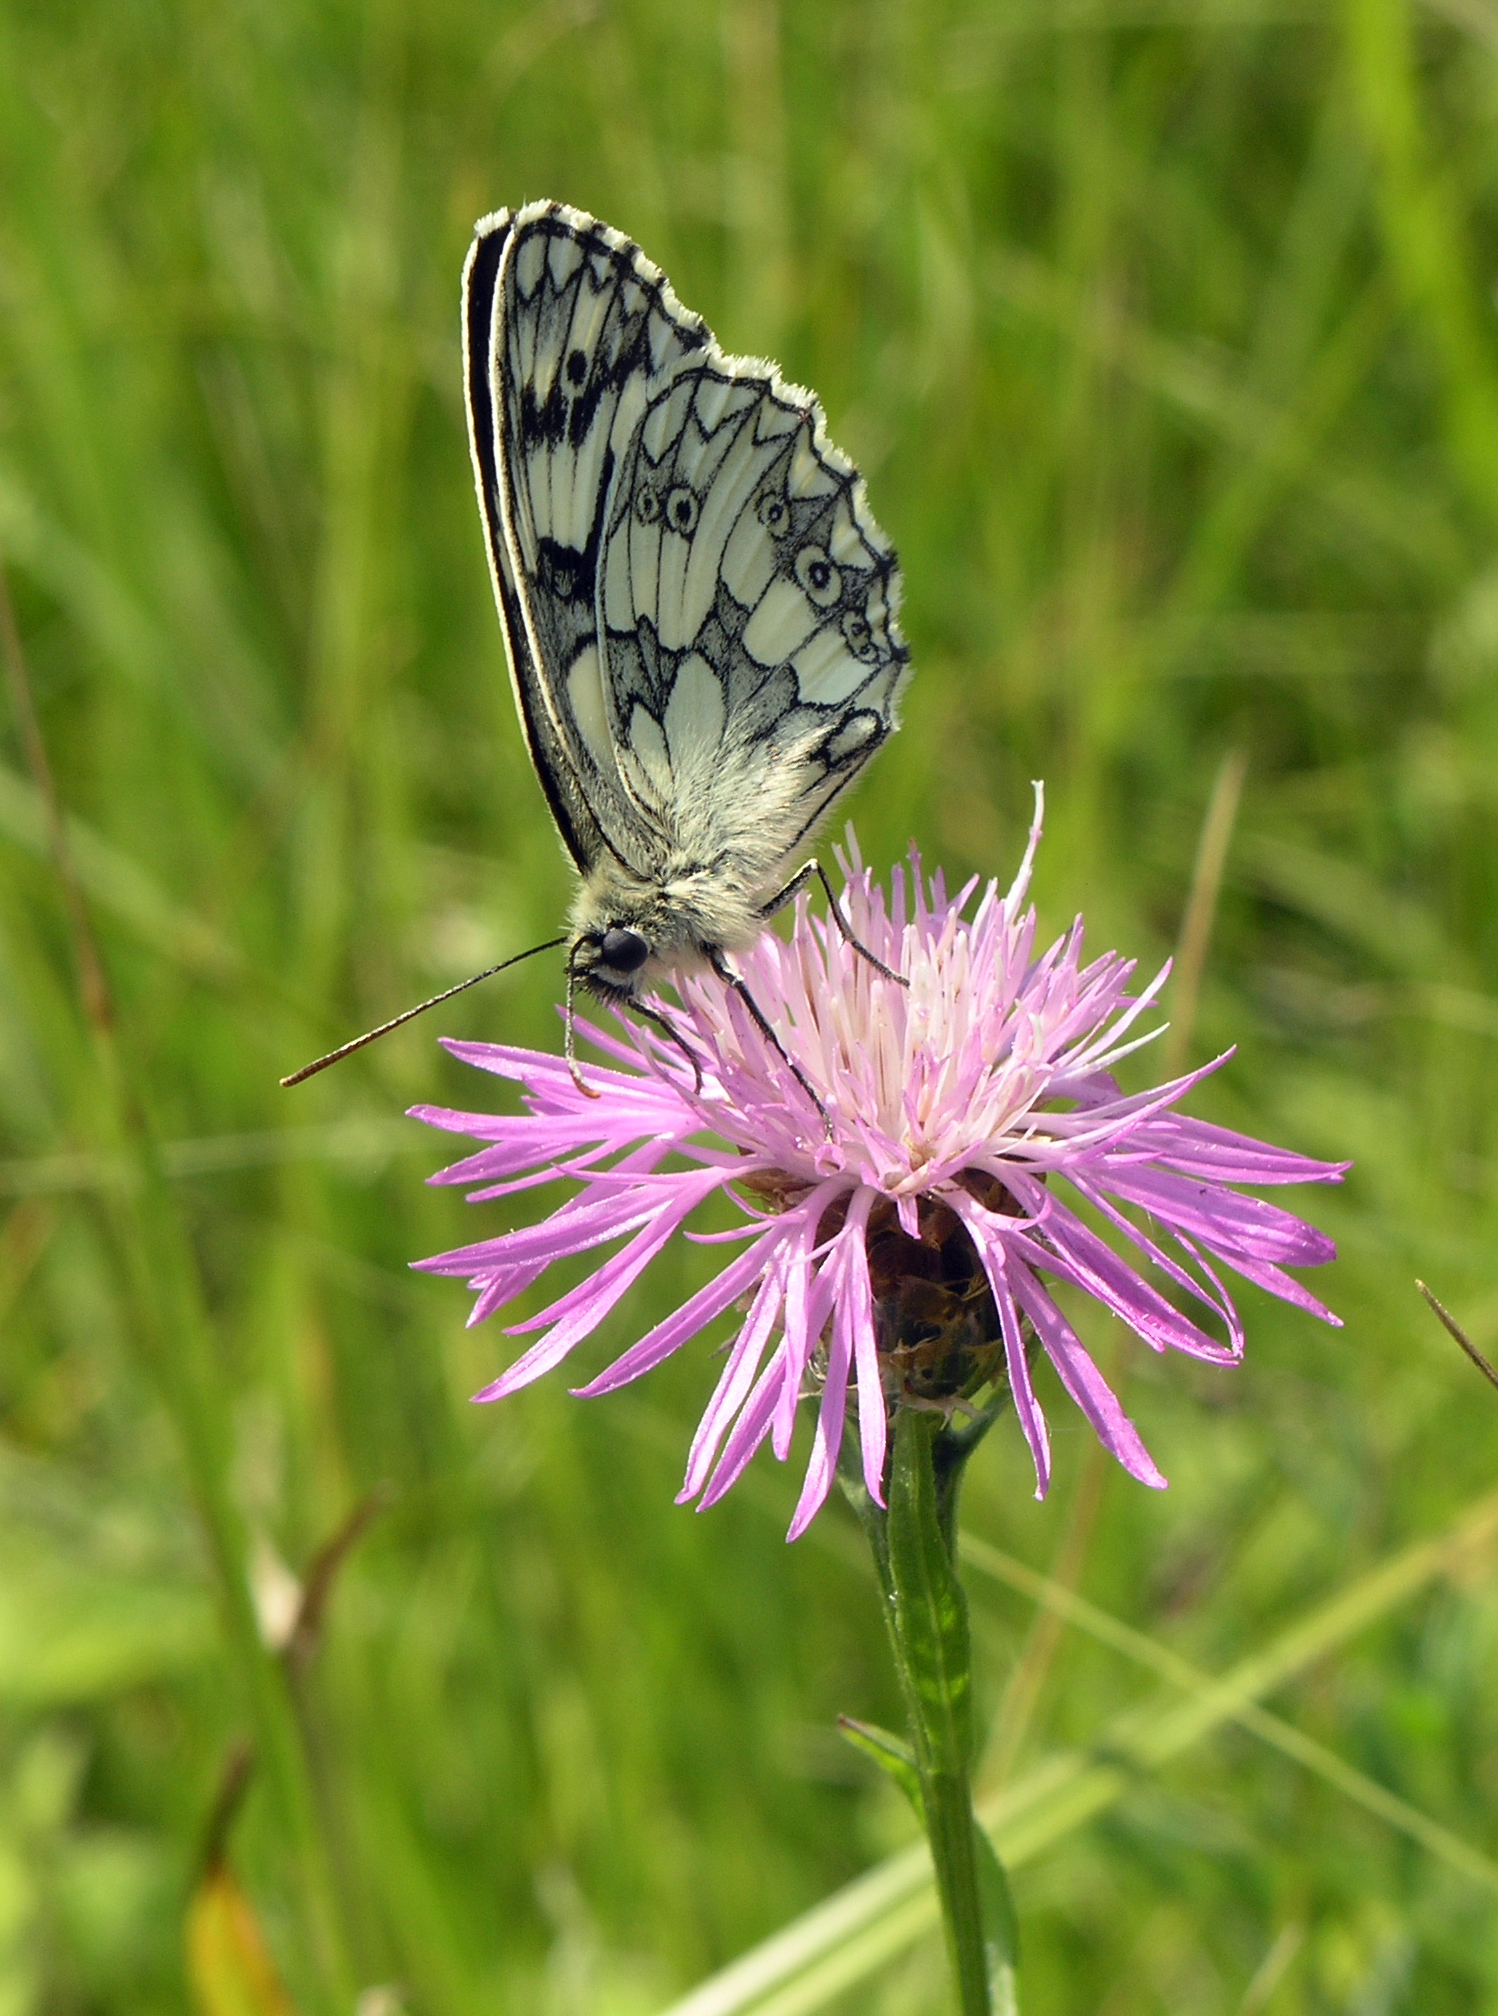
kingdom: Plantae
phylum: Tracheophyta
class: Magnoliopsida
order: Asterales
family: Asteraceae
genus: Centaurea
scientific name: Centaurea jacea
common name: Brown knapweed
